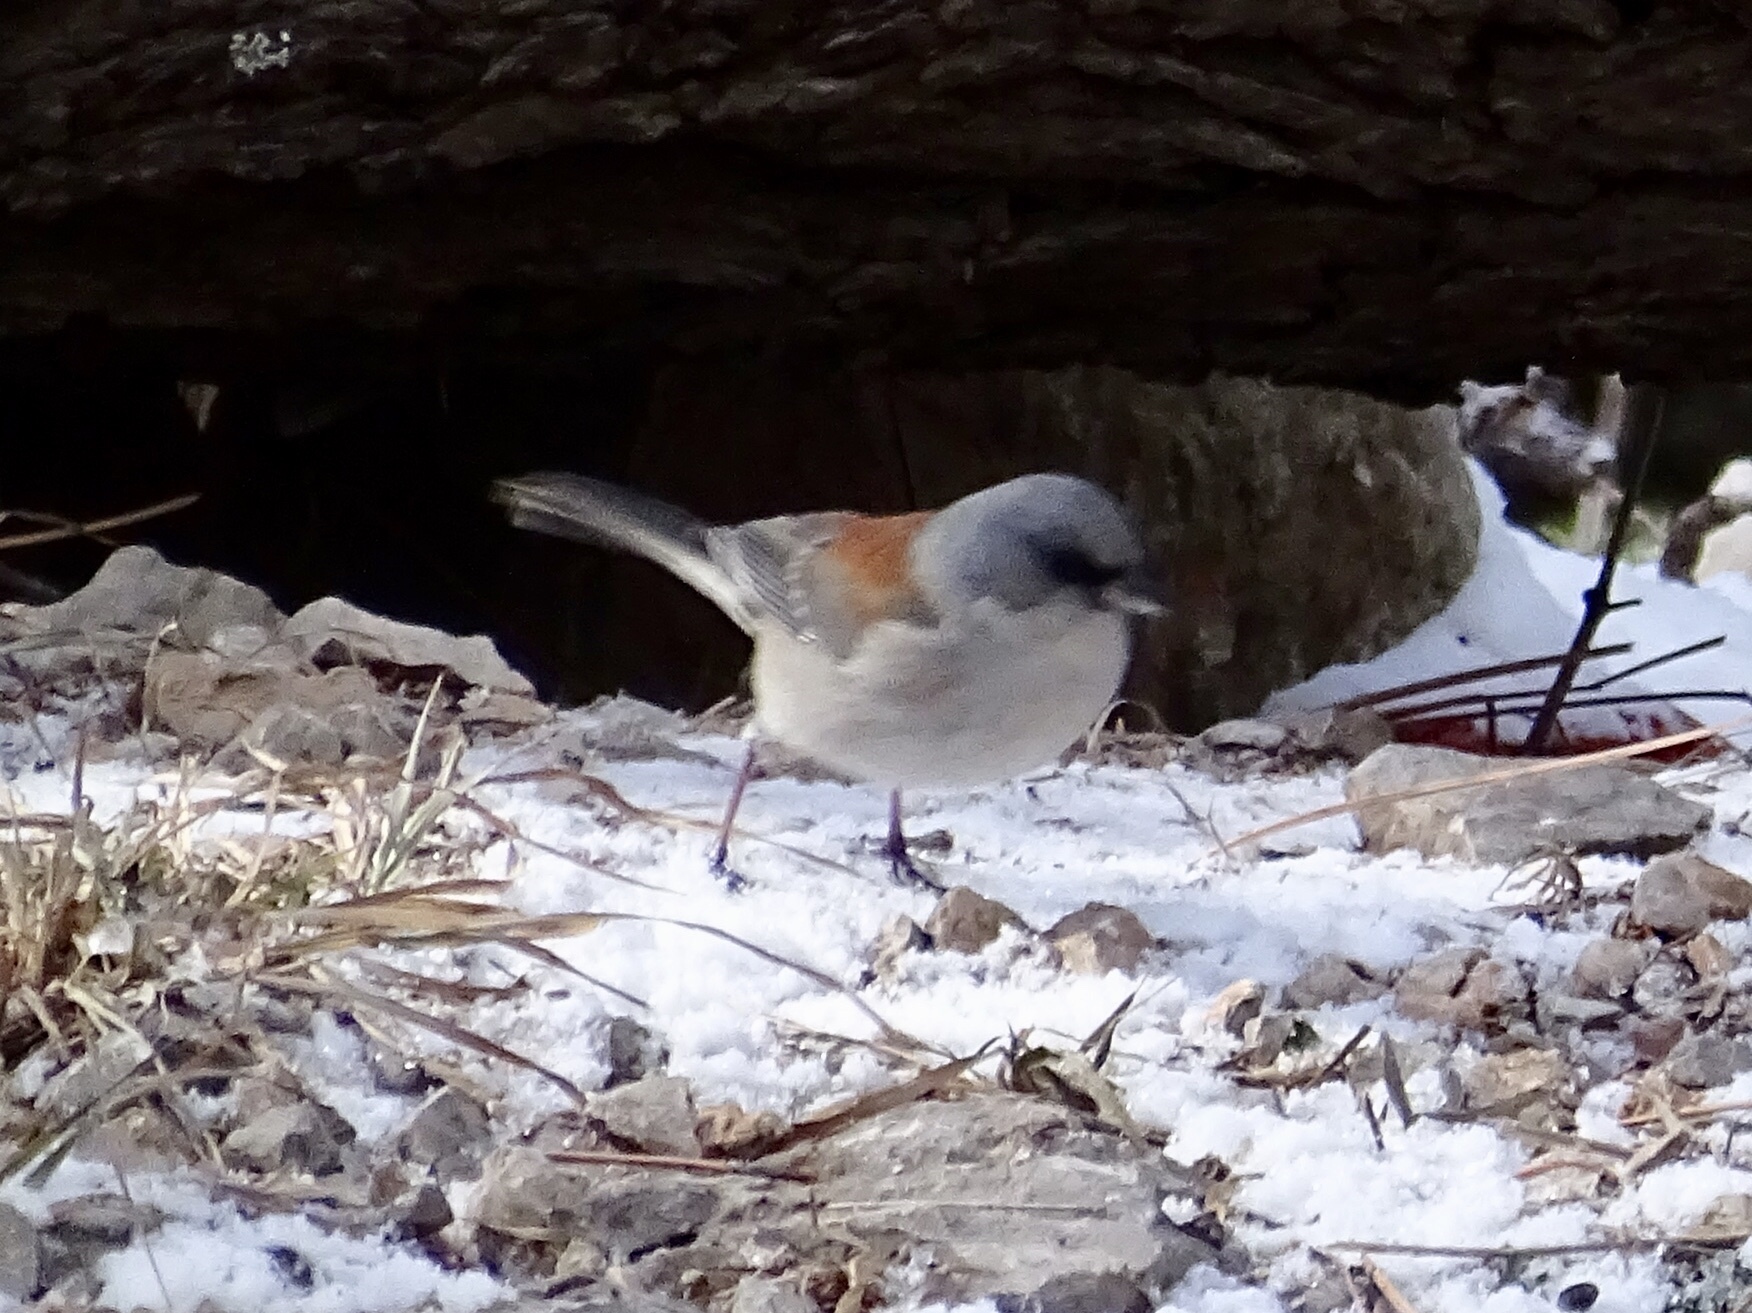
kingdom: Animalia
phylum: Chordata
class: Aves
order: Passeriformes
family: Passerellidae
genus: Junco
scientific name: Junco hyemalis
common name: Dark-eyed junco
